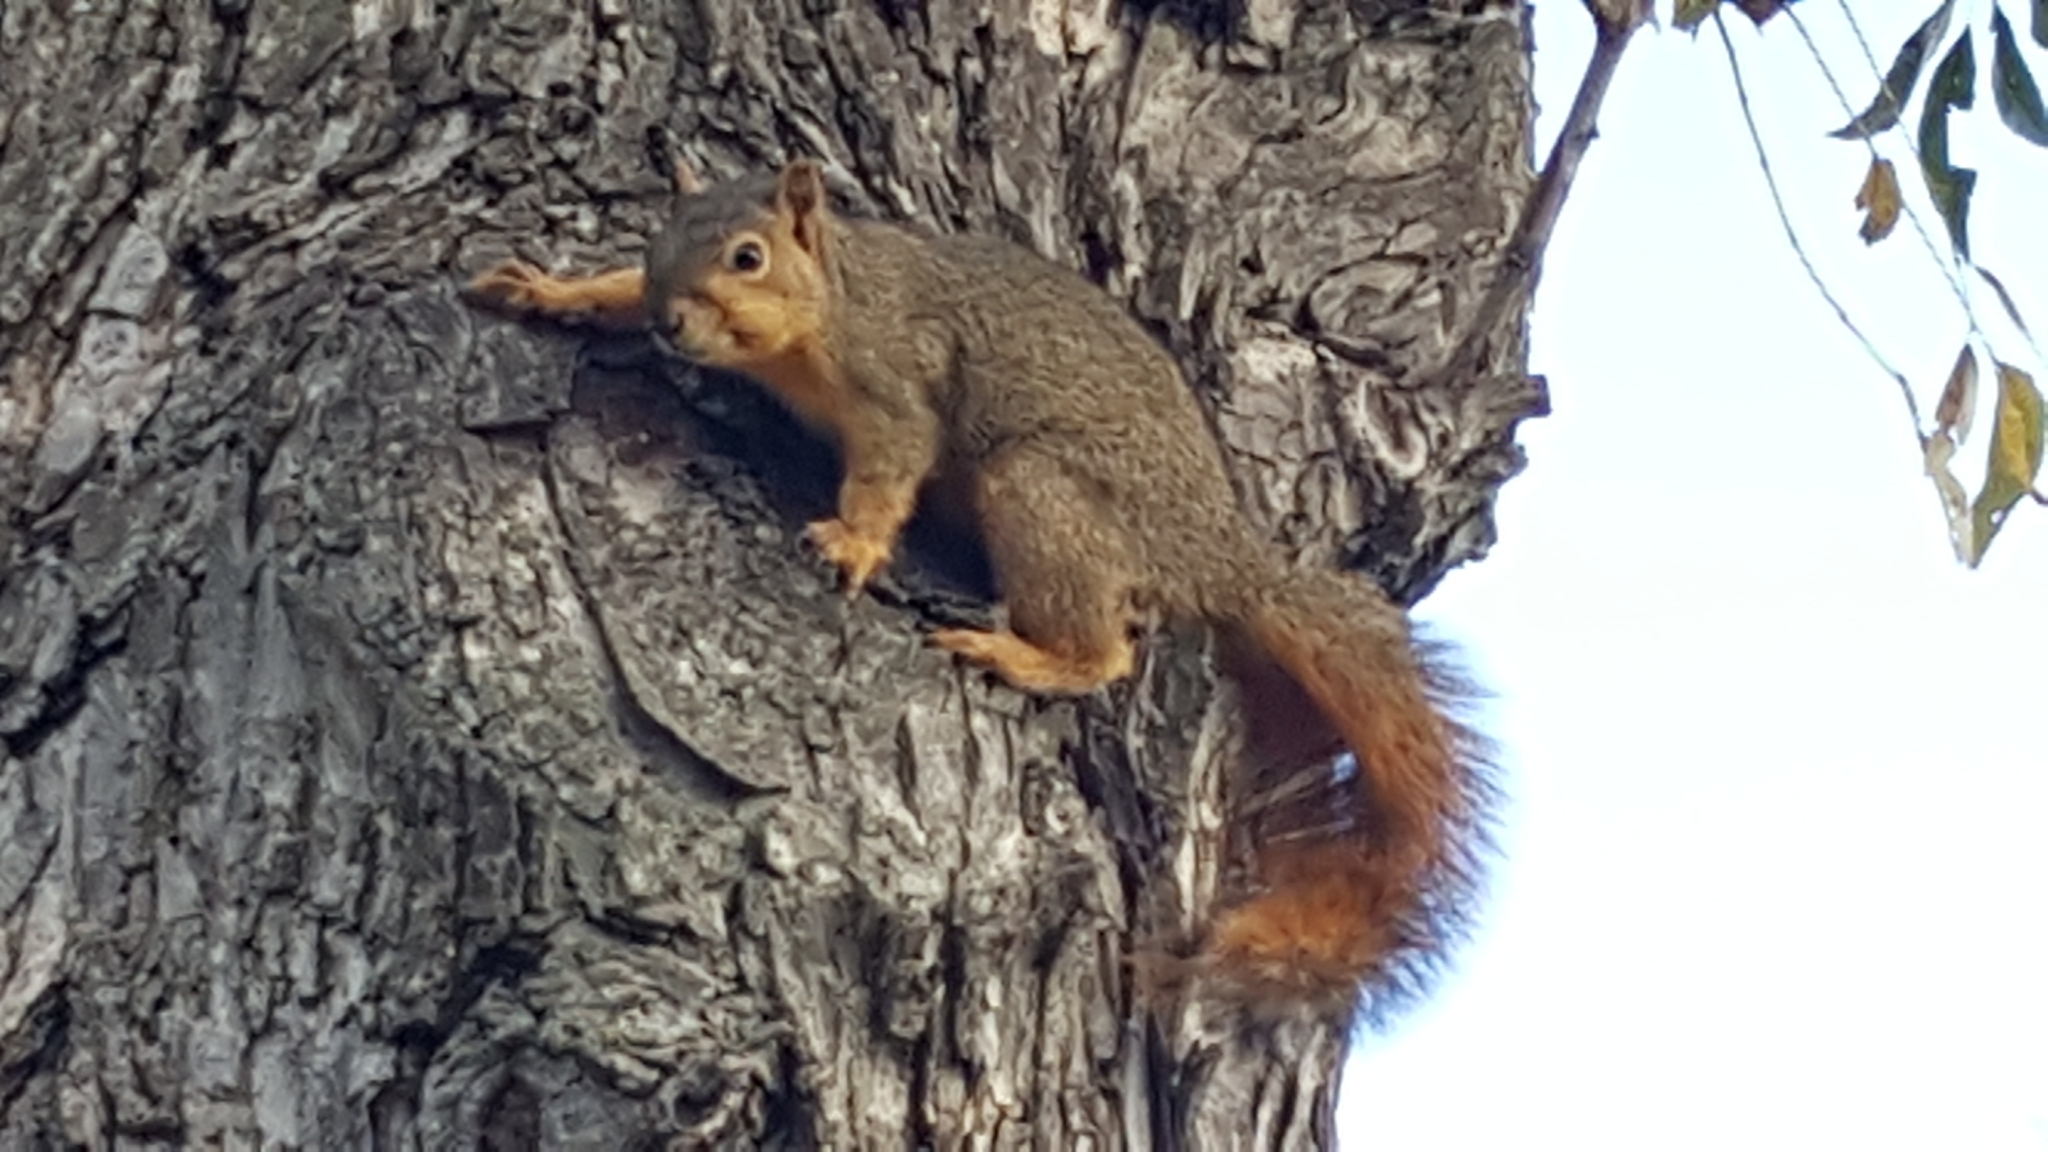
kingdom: Animalia
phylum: Chordata
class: Mammalia
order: Rodentia
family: Sciuridae
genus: Sciurus
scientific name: Sciurus niger
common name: Fox squirrel
